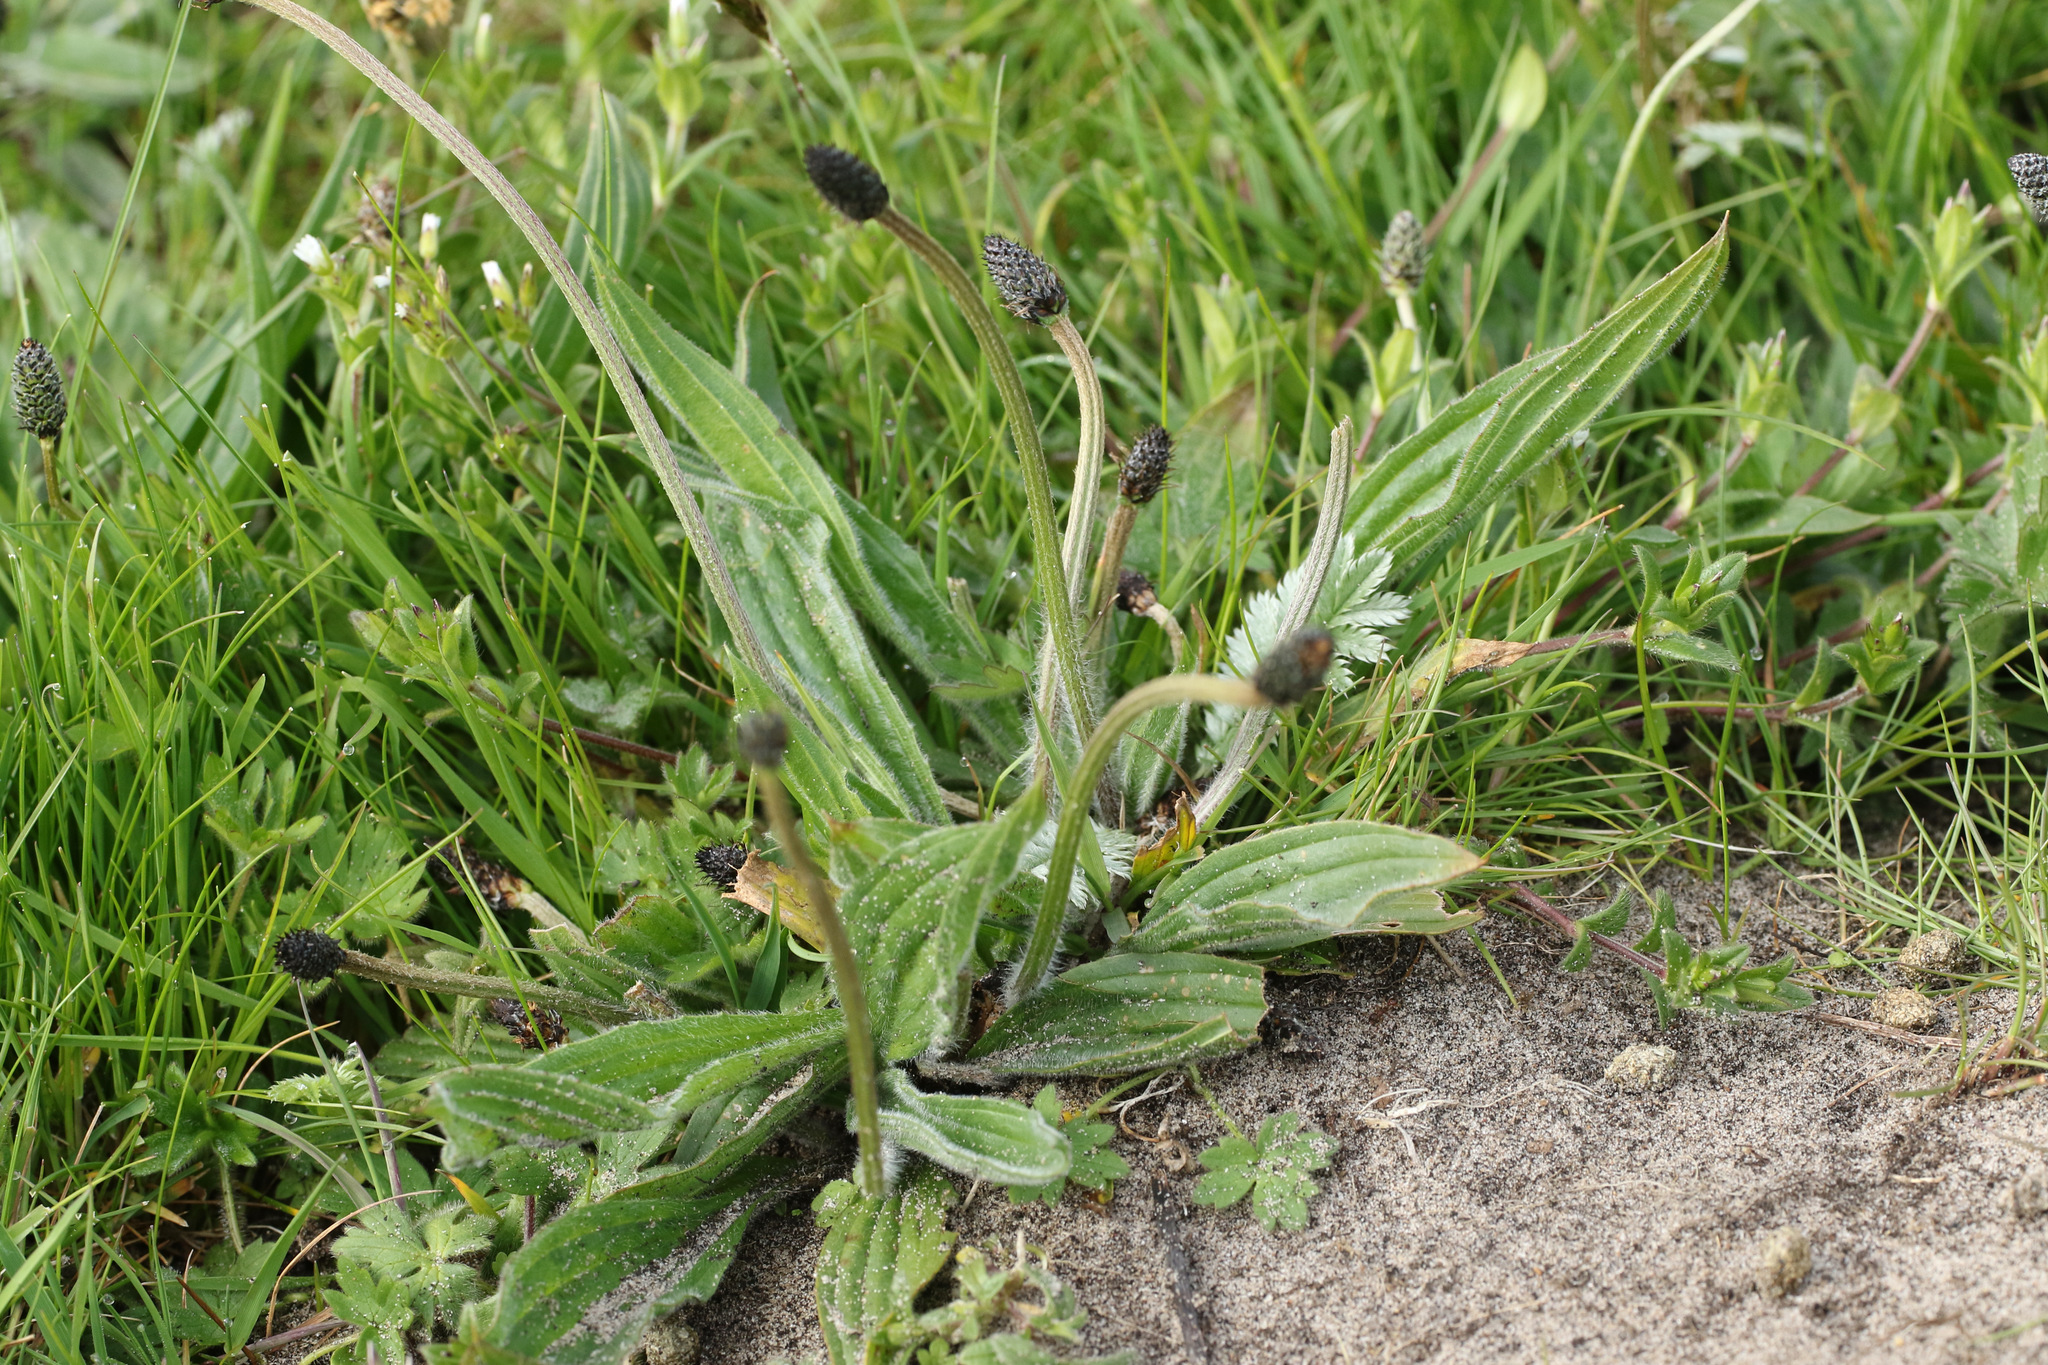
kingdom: Plantae
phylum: Tracheophyta
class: Magnoliopsida
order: Lamiales
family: Plantaginaceae
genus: Plantago
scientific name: Plantago lanceolata
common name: Ribwort plantain
